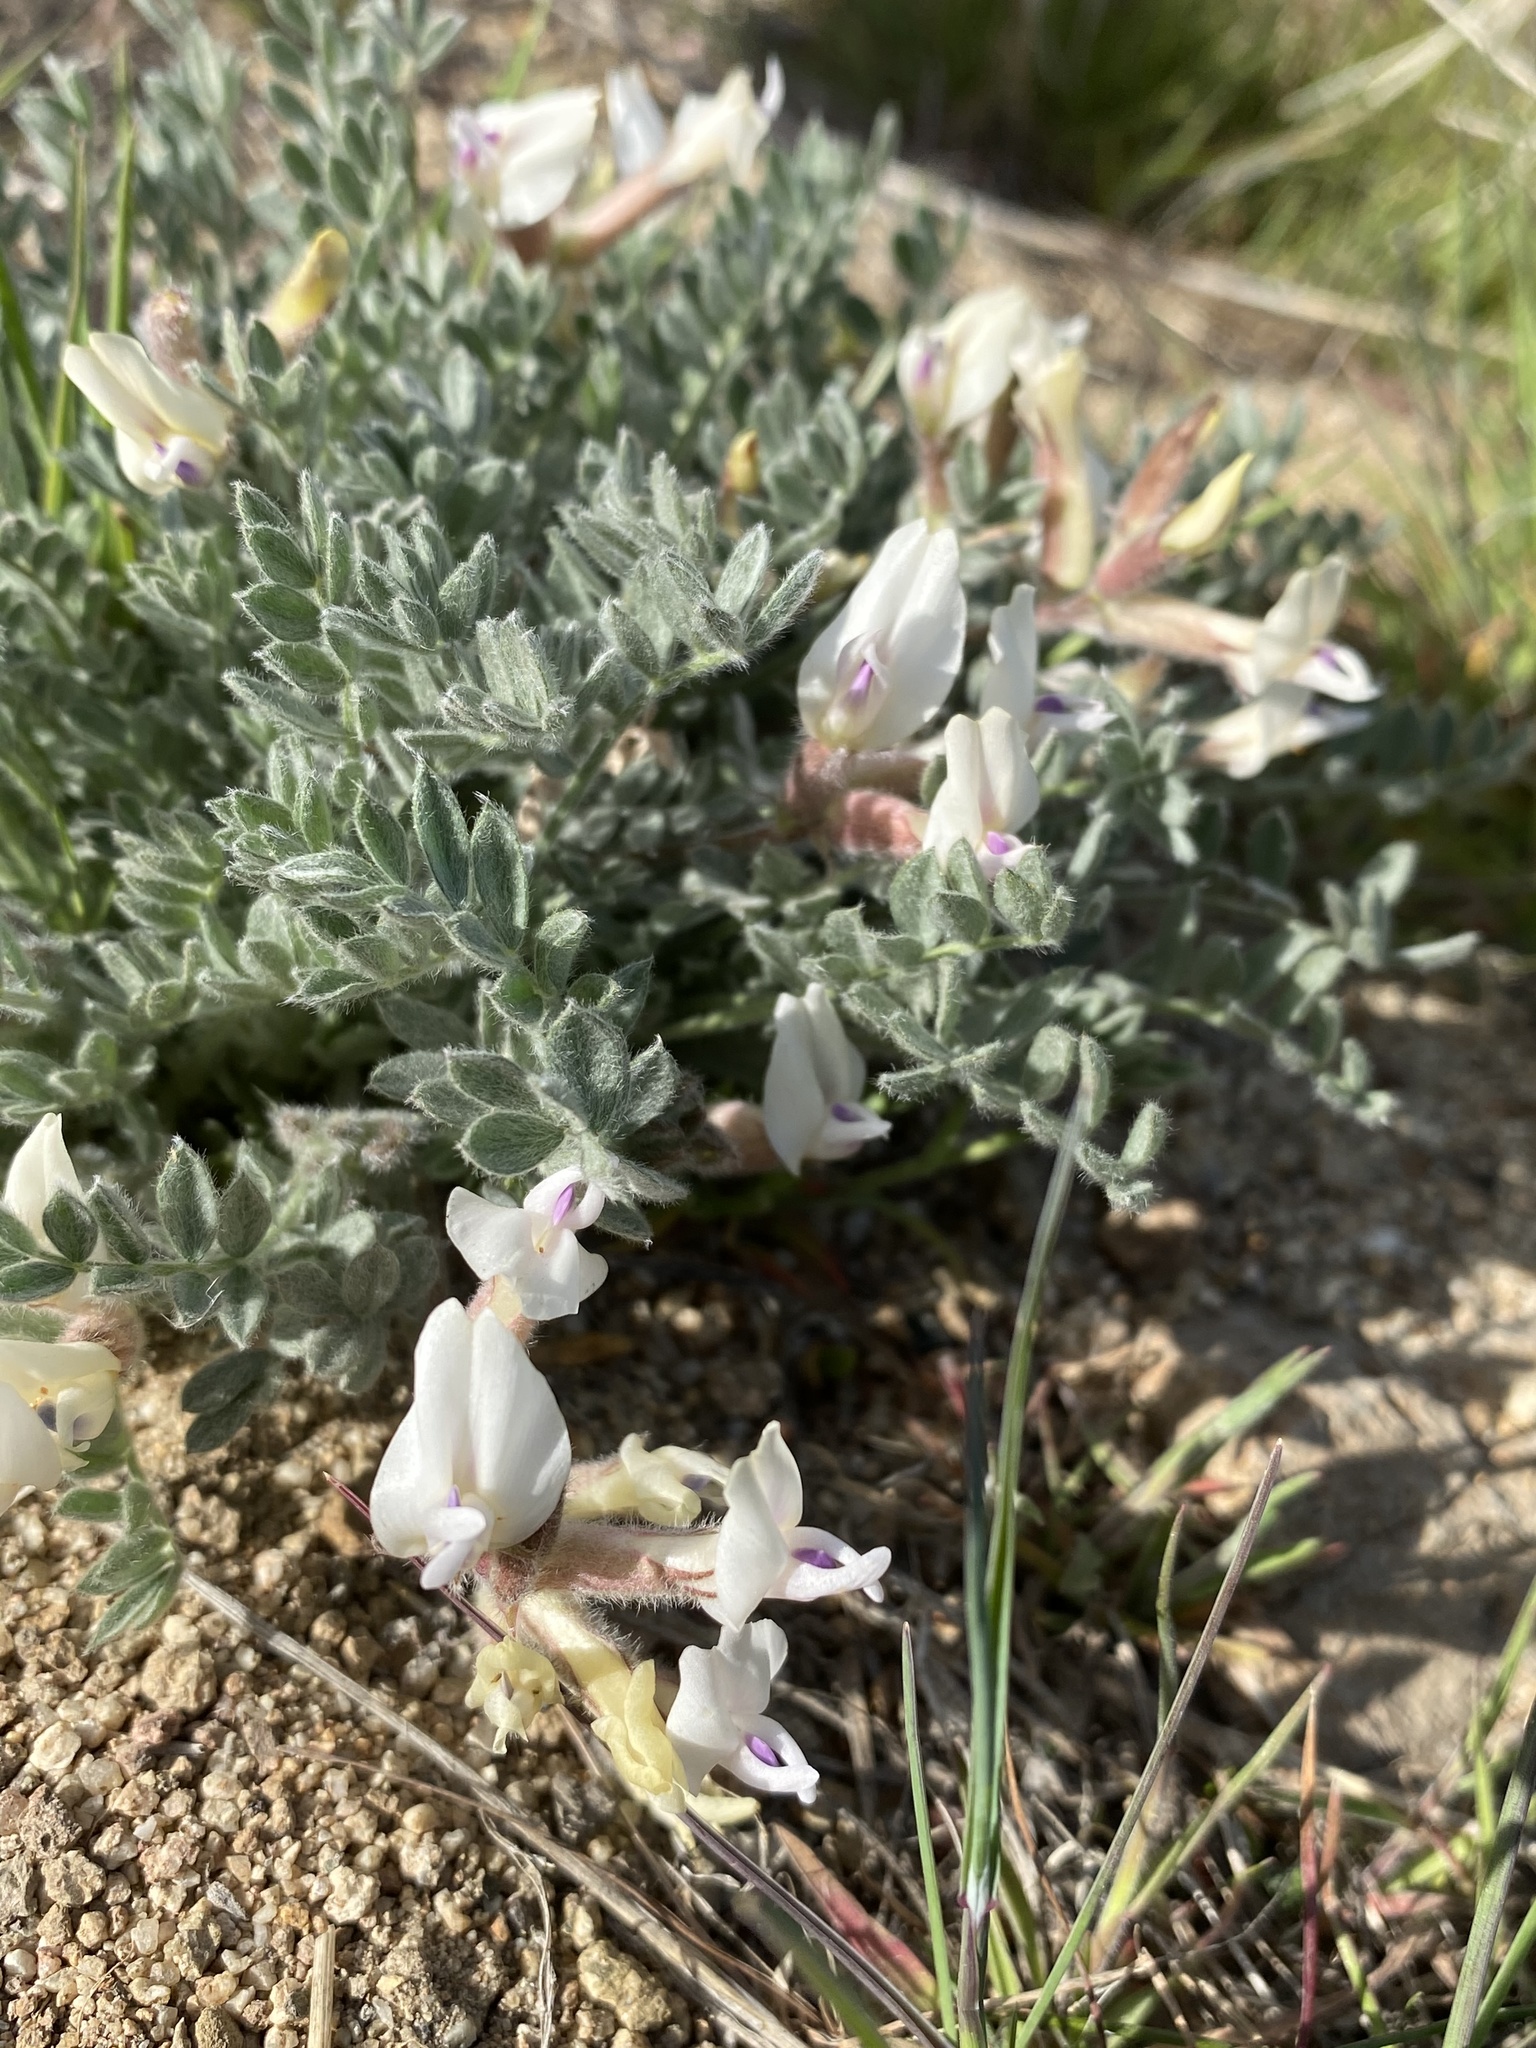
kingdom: Plantae
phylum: Tracheophyta
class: Magnoliopsida
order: Fabales
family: Fabaceae
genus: Astragalus
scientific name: Astragalus purshii
